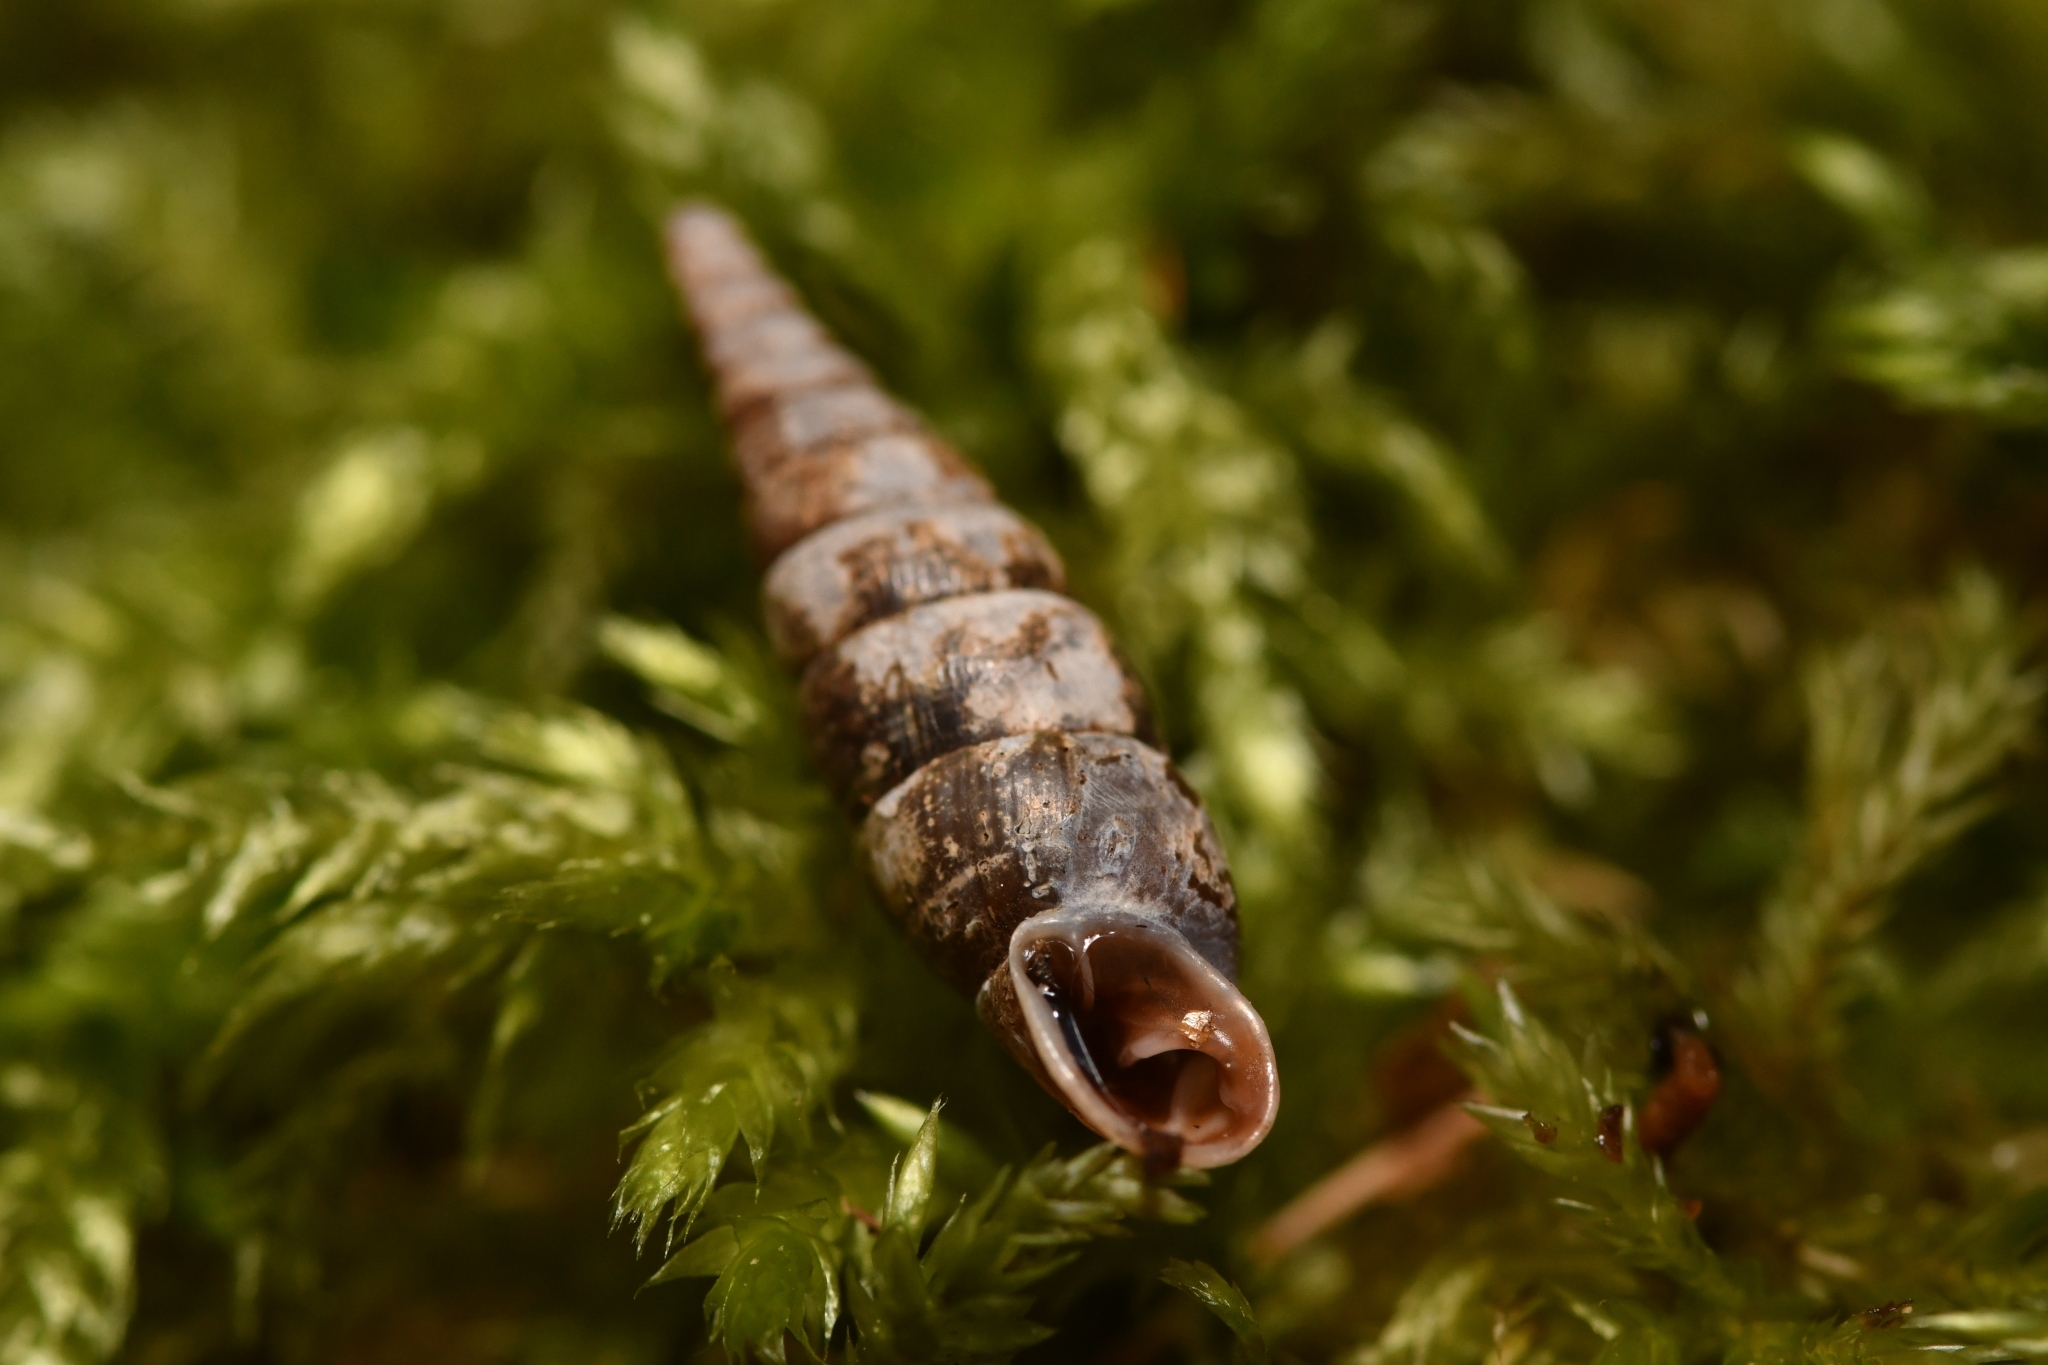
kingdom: Animalia
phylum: Mollusca
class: Gastropoda
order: Stylommatophora
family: Clausiliidae
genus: Cochlodina
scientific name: Cochlodina laminata
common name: Plaited door snail
